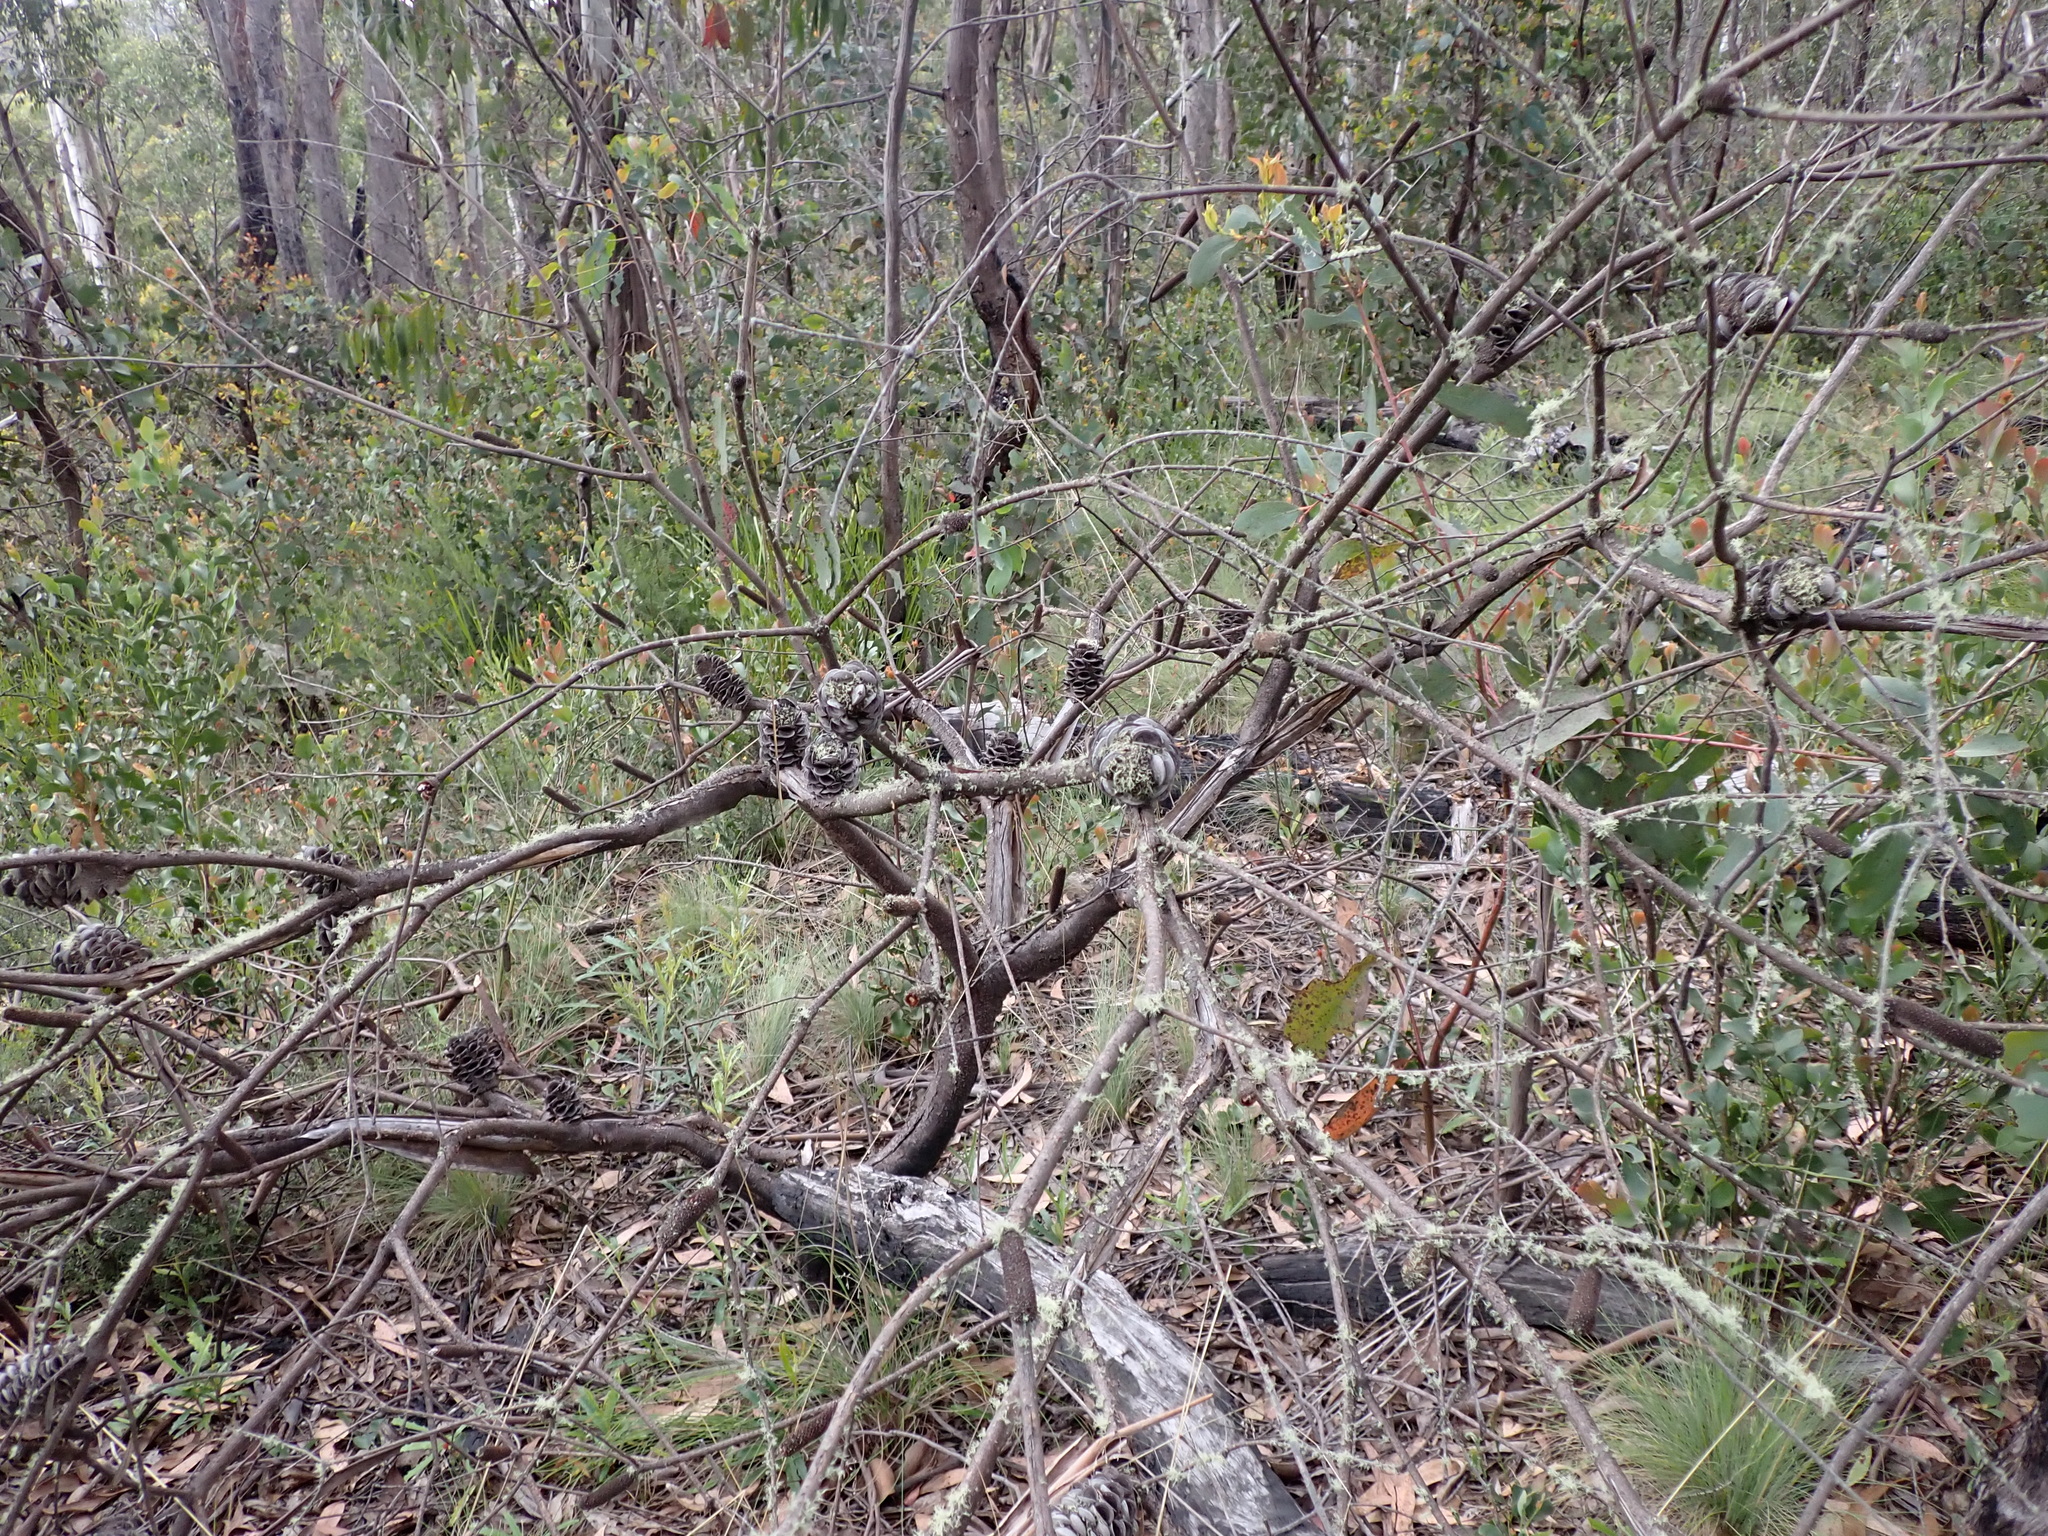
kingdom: Plantae
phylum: Tracheophyta
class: Magnoliopsida
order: Proteales
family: Proteaceae
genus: Banksia
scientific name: Banksia canei
